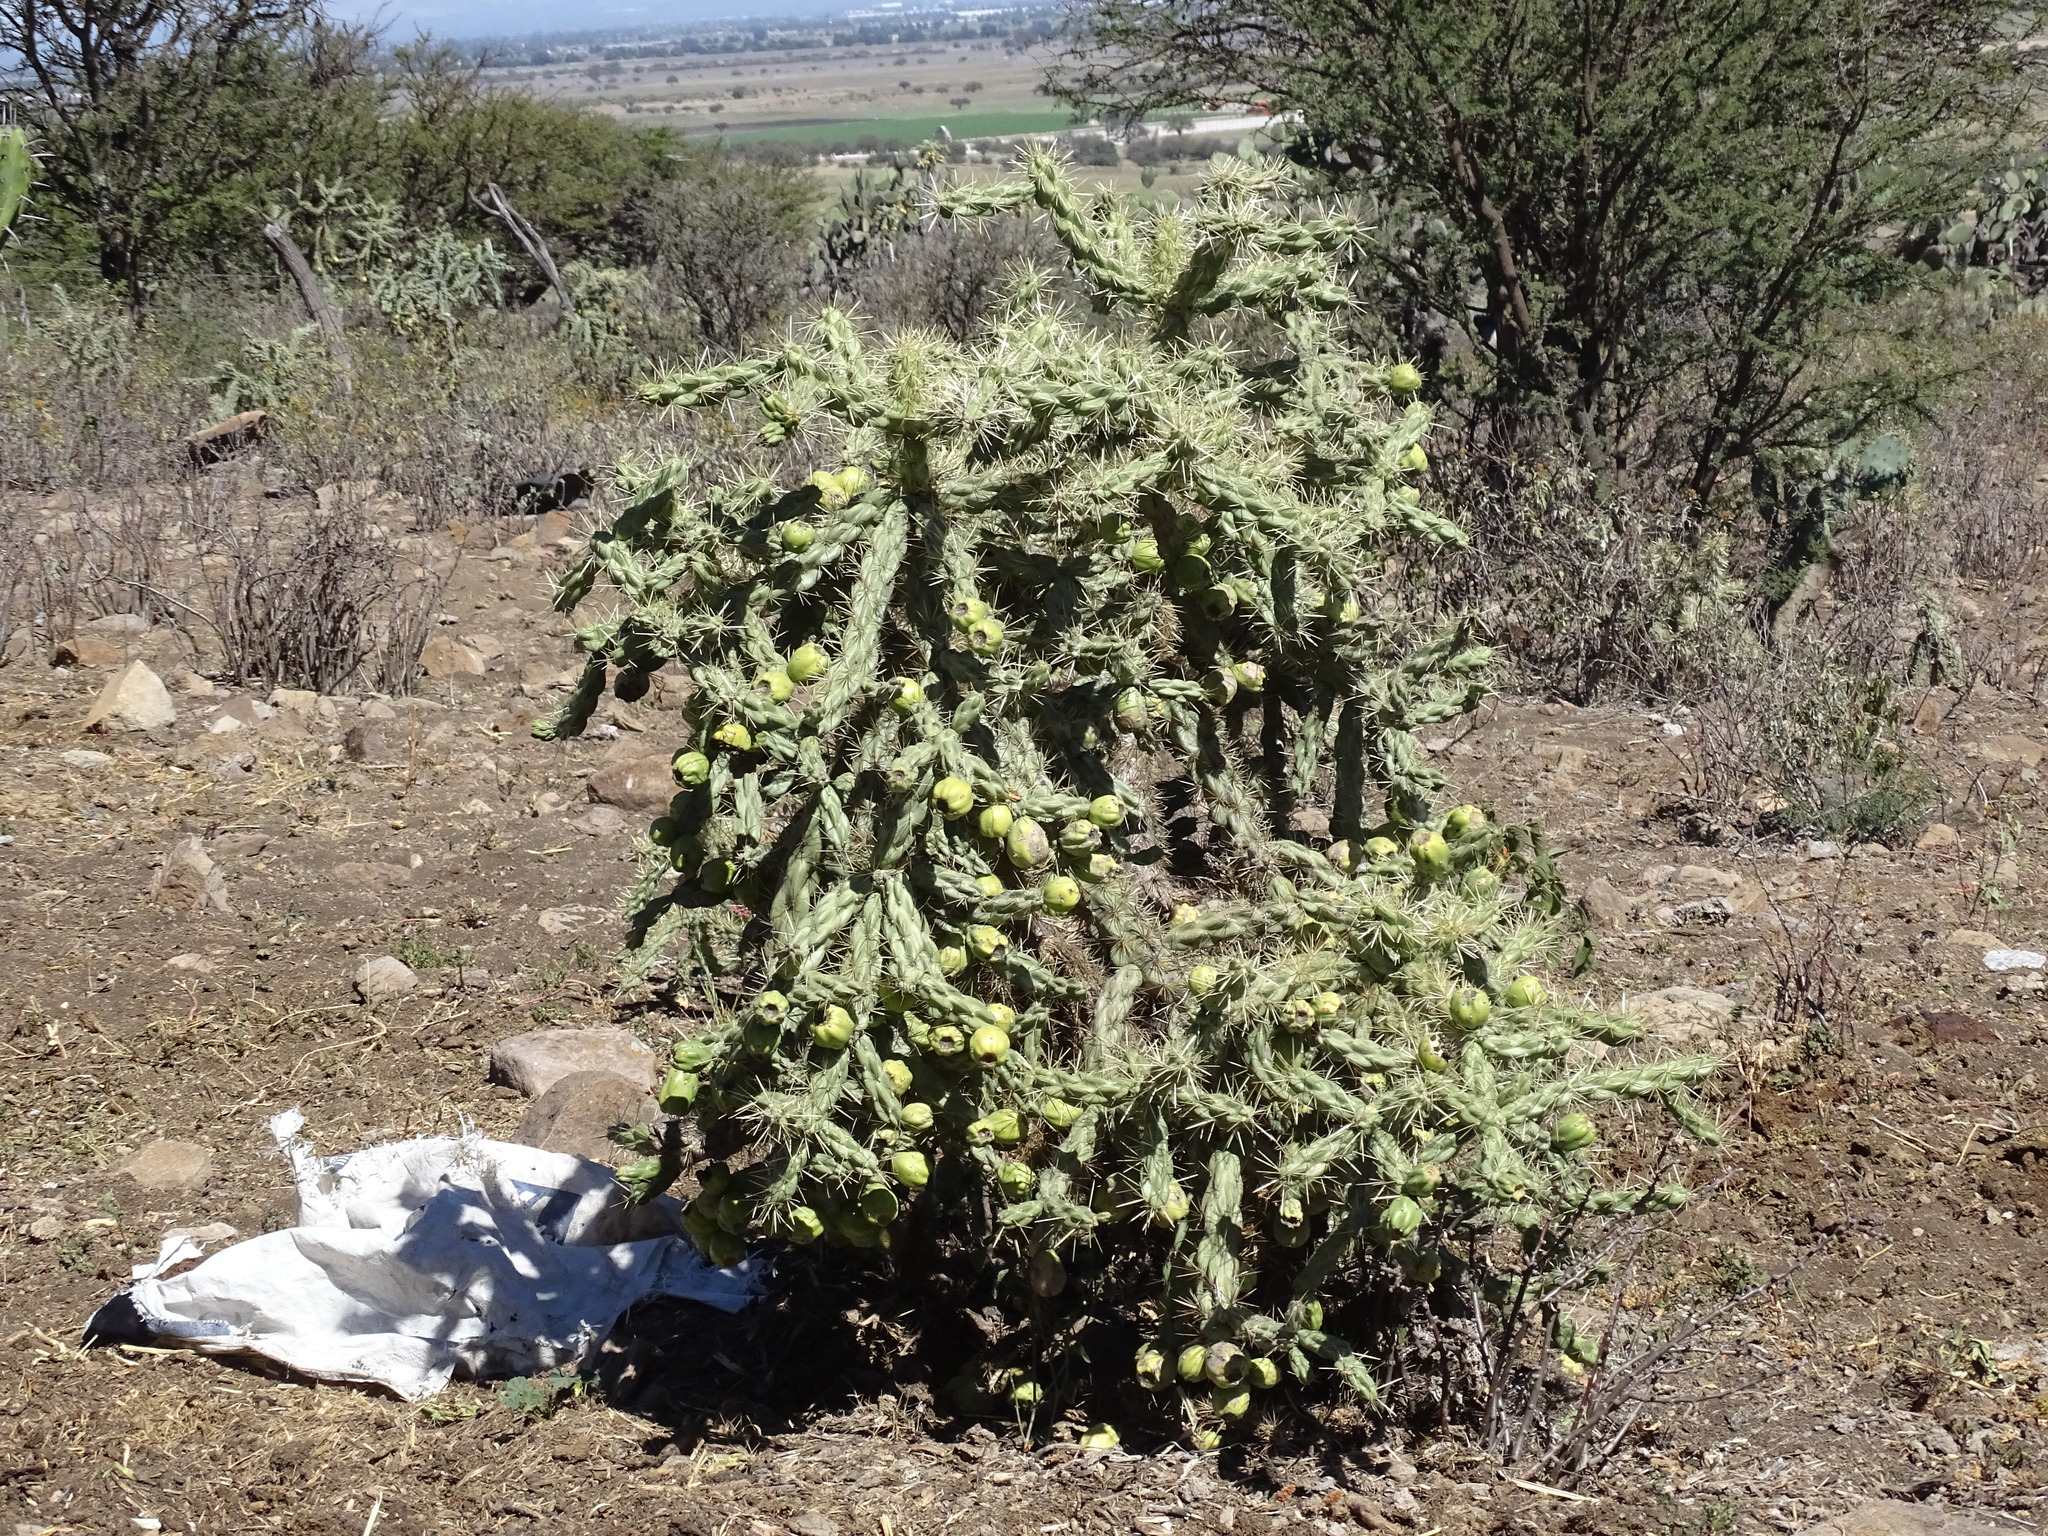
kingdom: Plantae
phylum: Tracheophyta
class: Magnoliopsida
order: Caryophyllales
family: Cactaceae
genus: Cylindropuntia
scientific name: Cylindropuntia imbricata
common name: Candelabrum cactus
